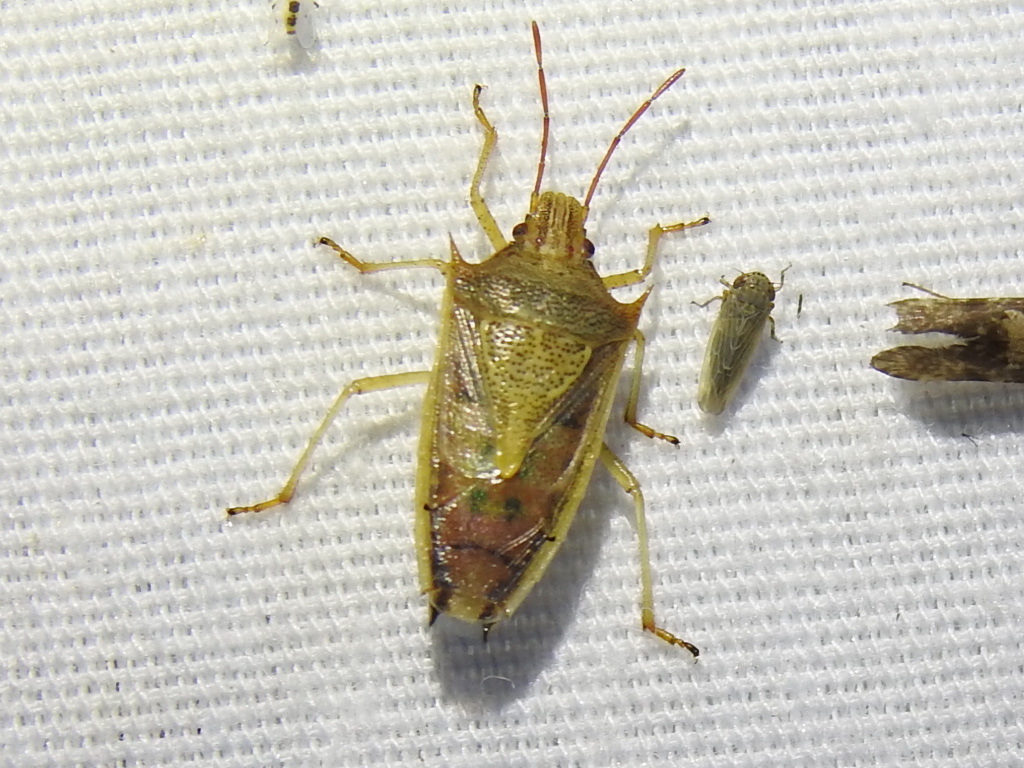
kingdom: Animalia
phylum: Arthropoda
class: Insecta
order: Hemiptera
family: Pentatomidae
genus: Oebalus
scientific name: Oebalus pugnax
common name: Rice stink bug
